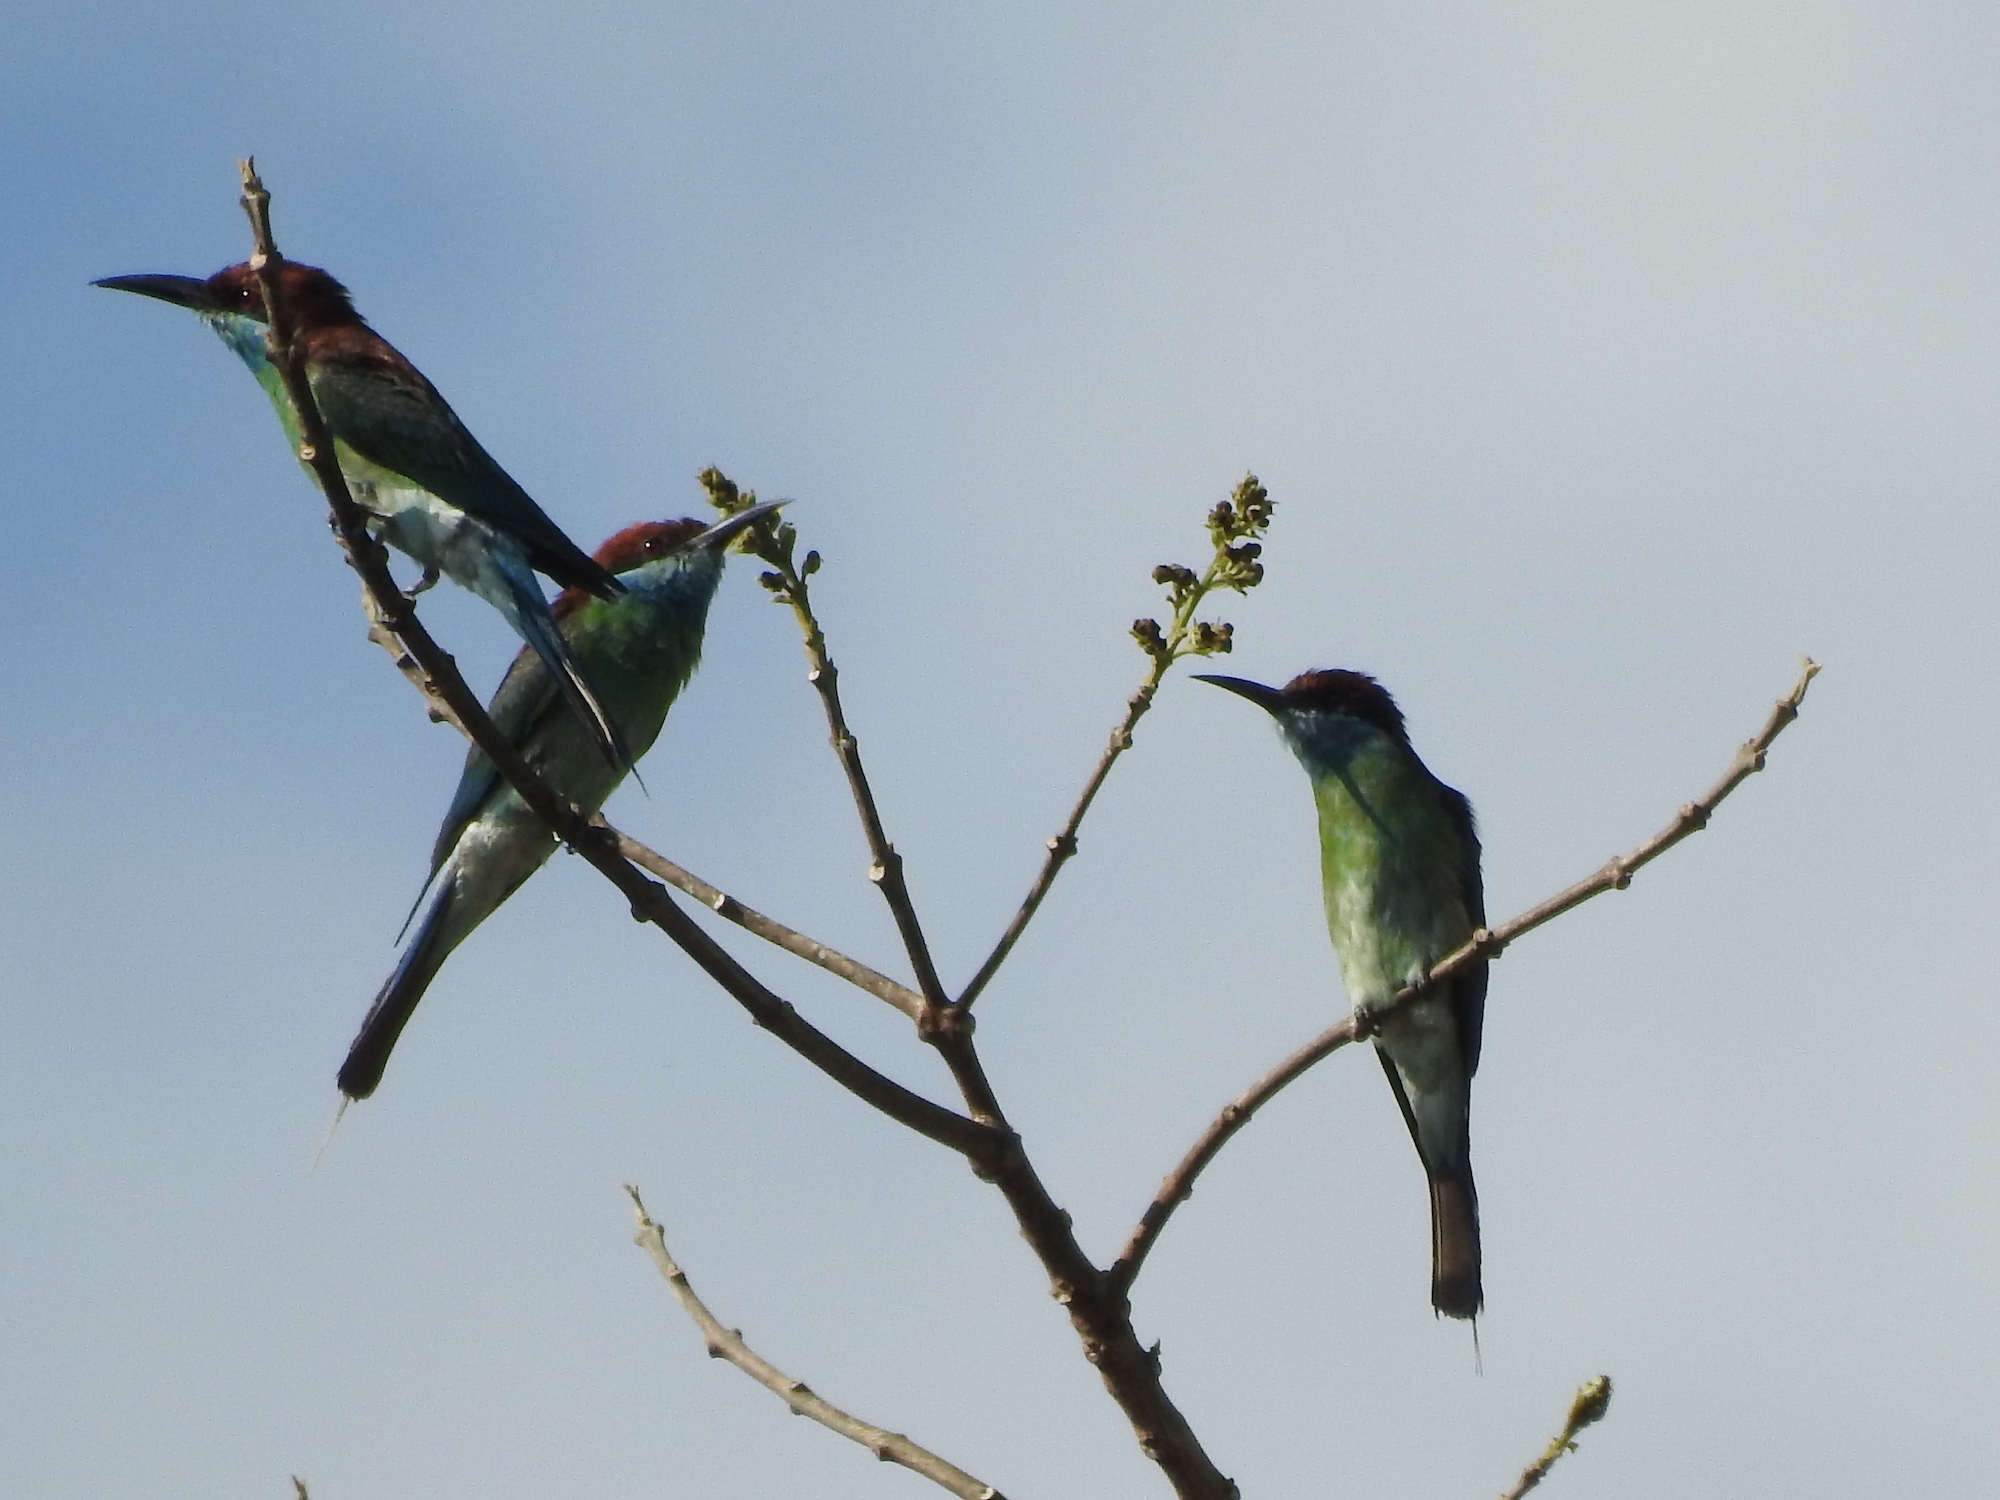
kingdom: Animalia
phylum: Chordata
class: Aves
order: Coraciiformes
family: Meropidae
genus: Merops
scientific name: Merops viridis
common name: Blue-throated bee-eater
